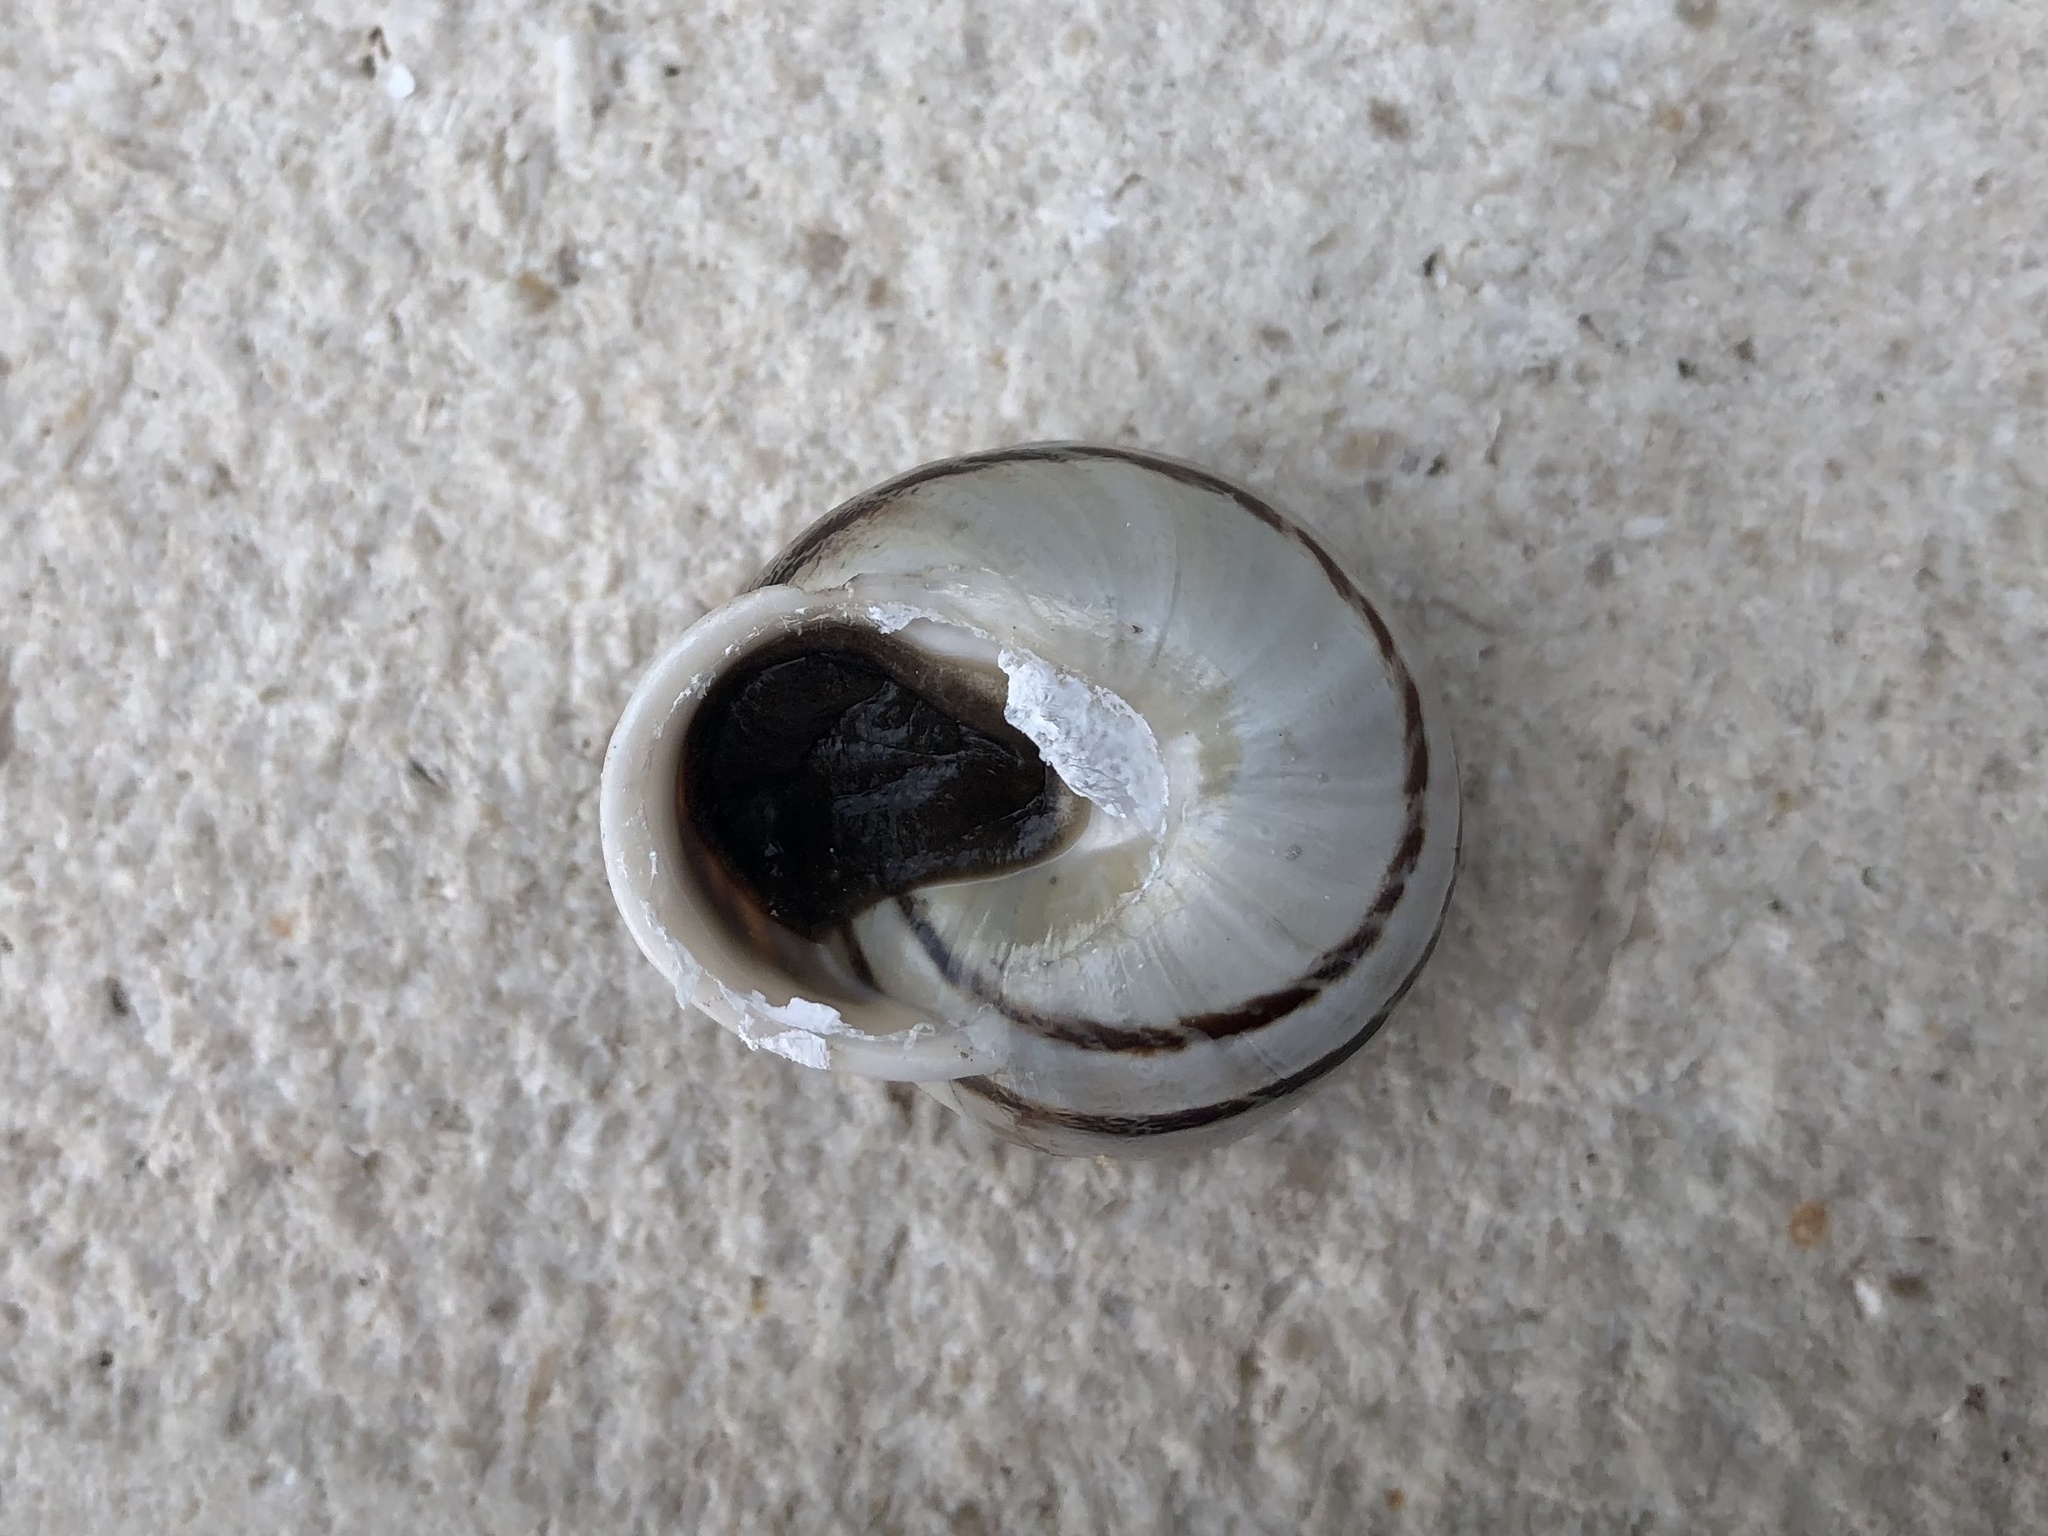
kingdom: Animalia
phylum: Mollusca
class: Gastropoda
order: Stylommatophora
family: Helicidae
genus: Eobania
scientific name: Eobania vermiculata
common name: Chocolateband snail
